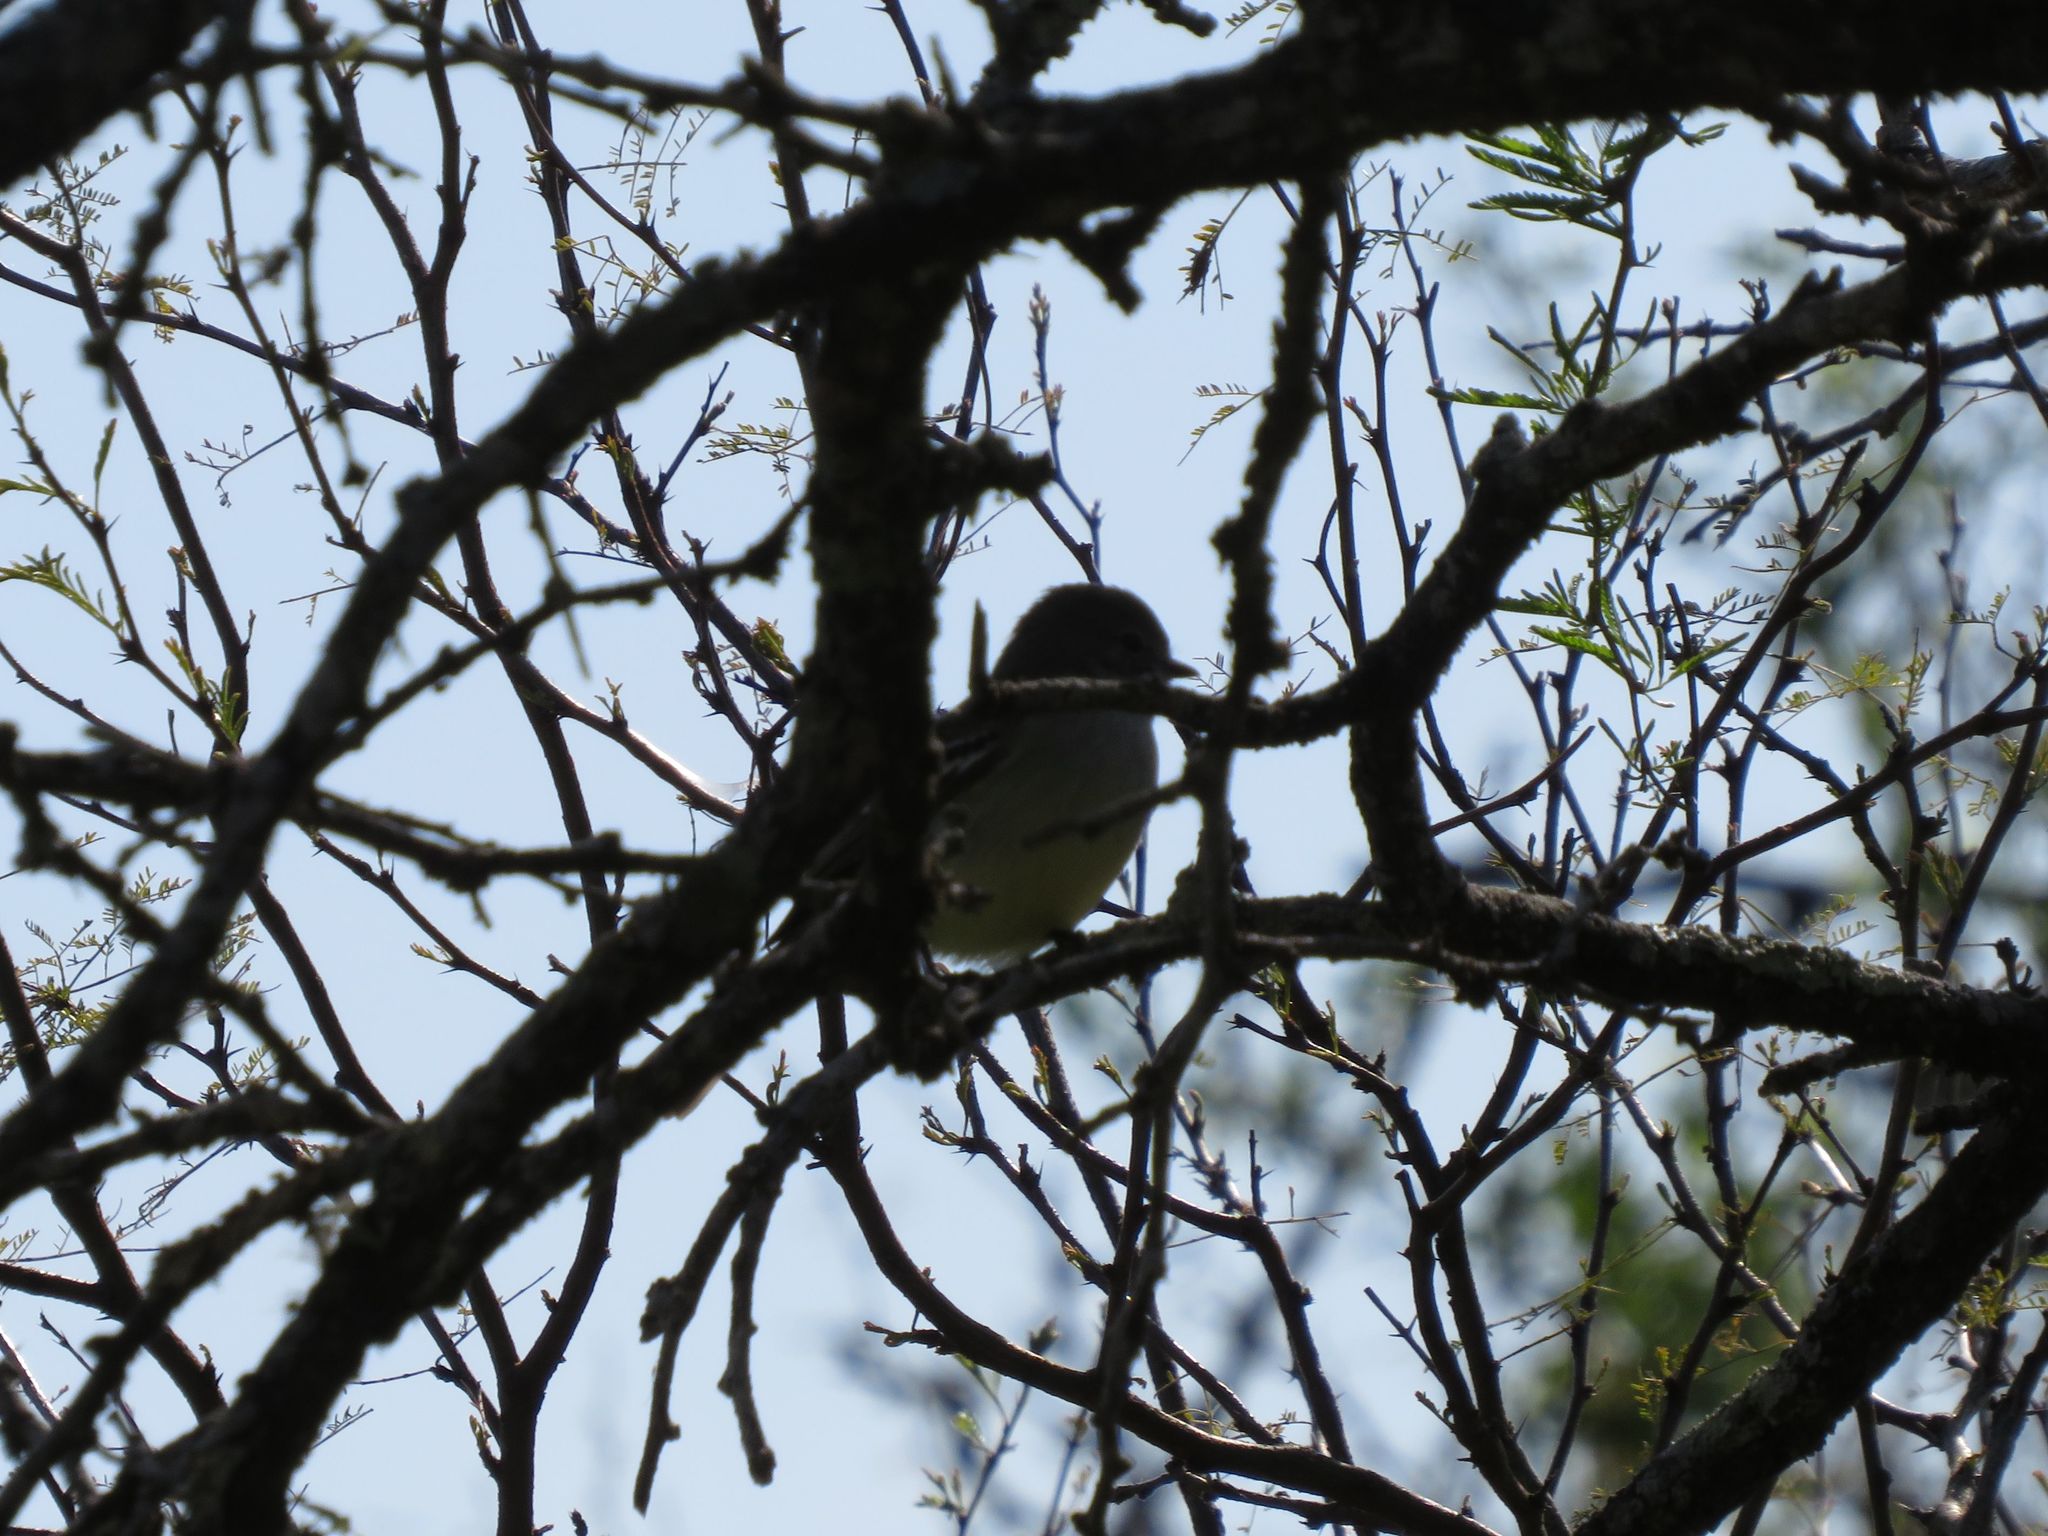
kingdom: Animalia
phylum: Chordata
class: Aves
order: Passeriformes
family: Tyrannidae
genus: Elaenia
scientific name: Elaenia parvirostris
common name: Small-billed elaenia
